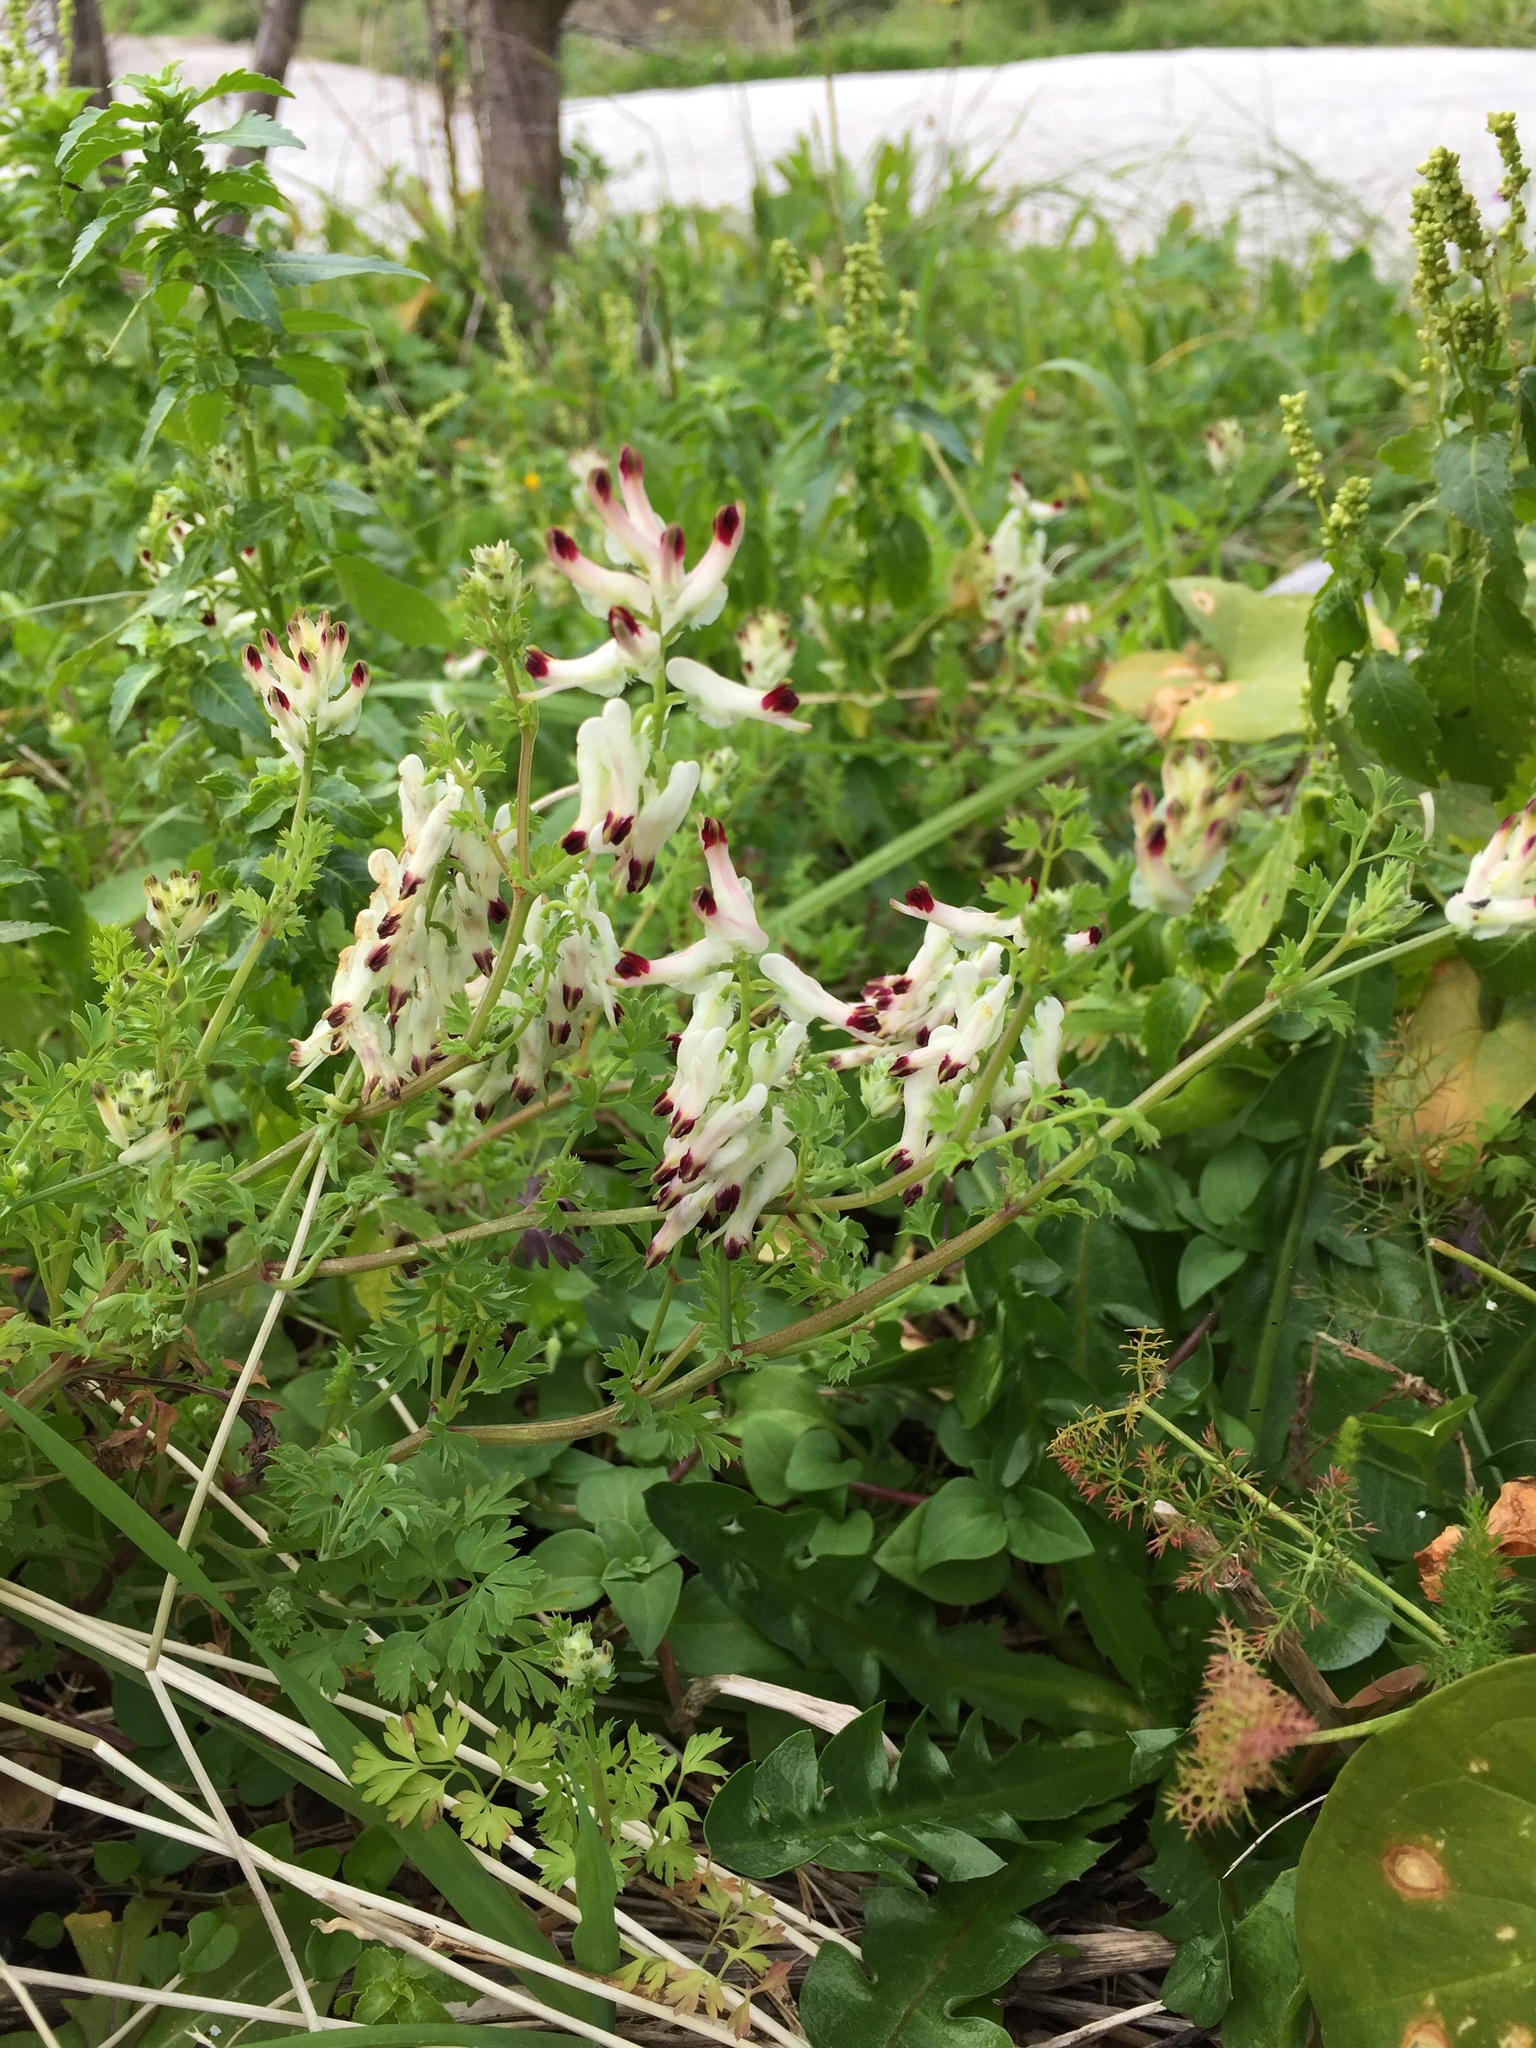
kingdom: Plantae
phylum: Tracheophyta
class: Magnoliopsida
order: Ranunculales
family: Papaveraceae
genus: Fumaria
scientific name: Fumaria capreolata
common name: White ramping-fumitory
